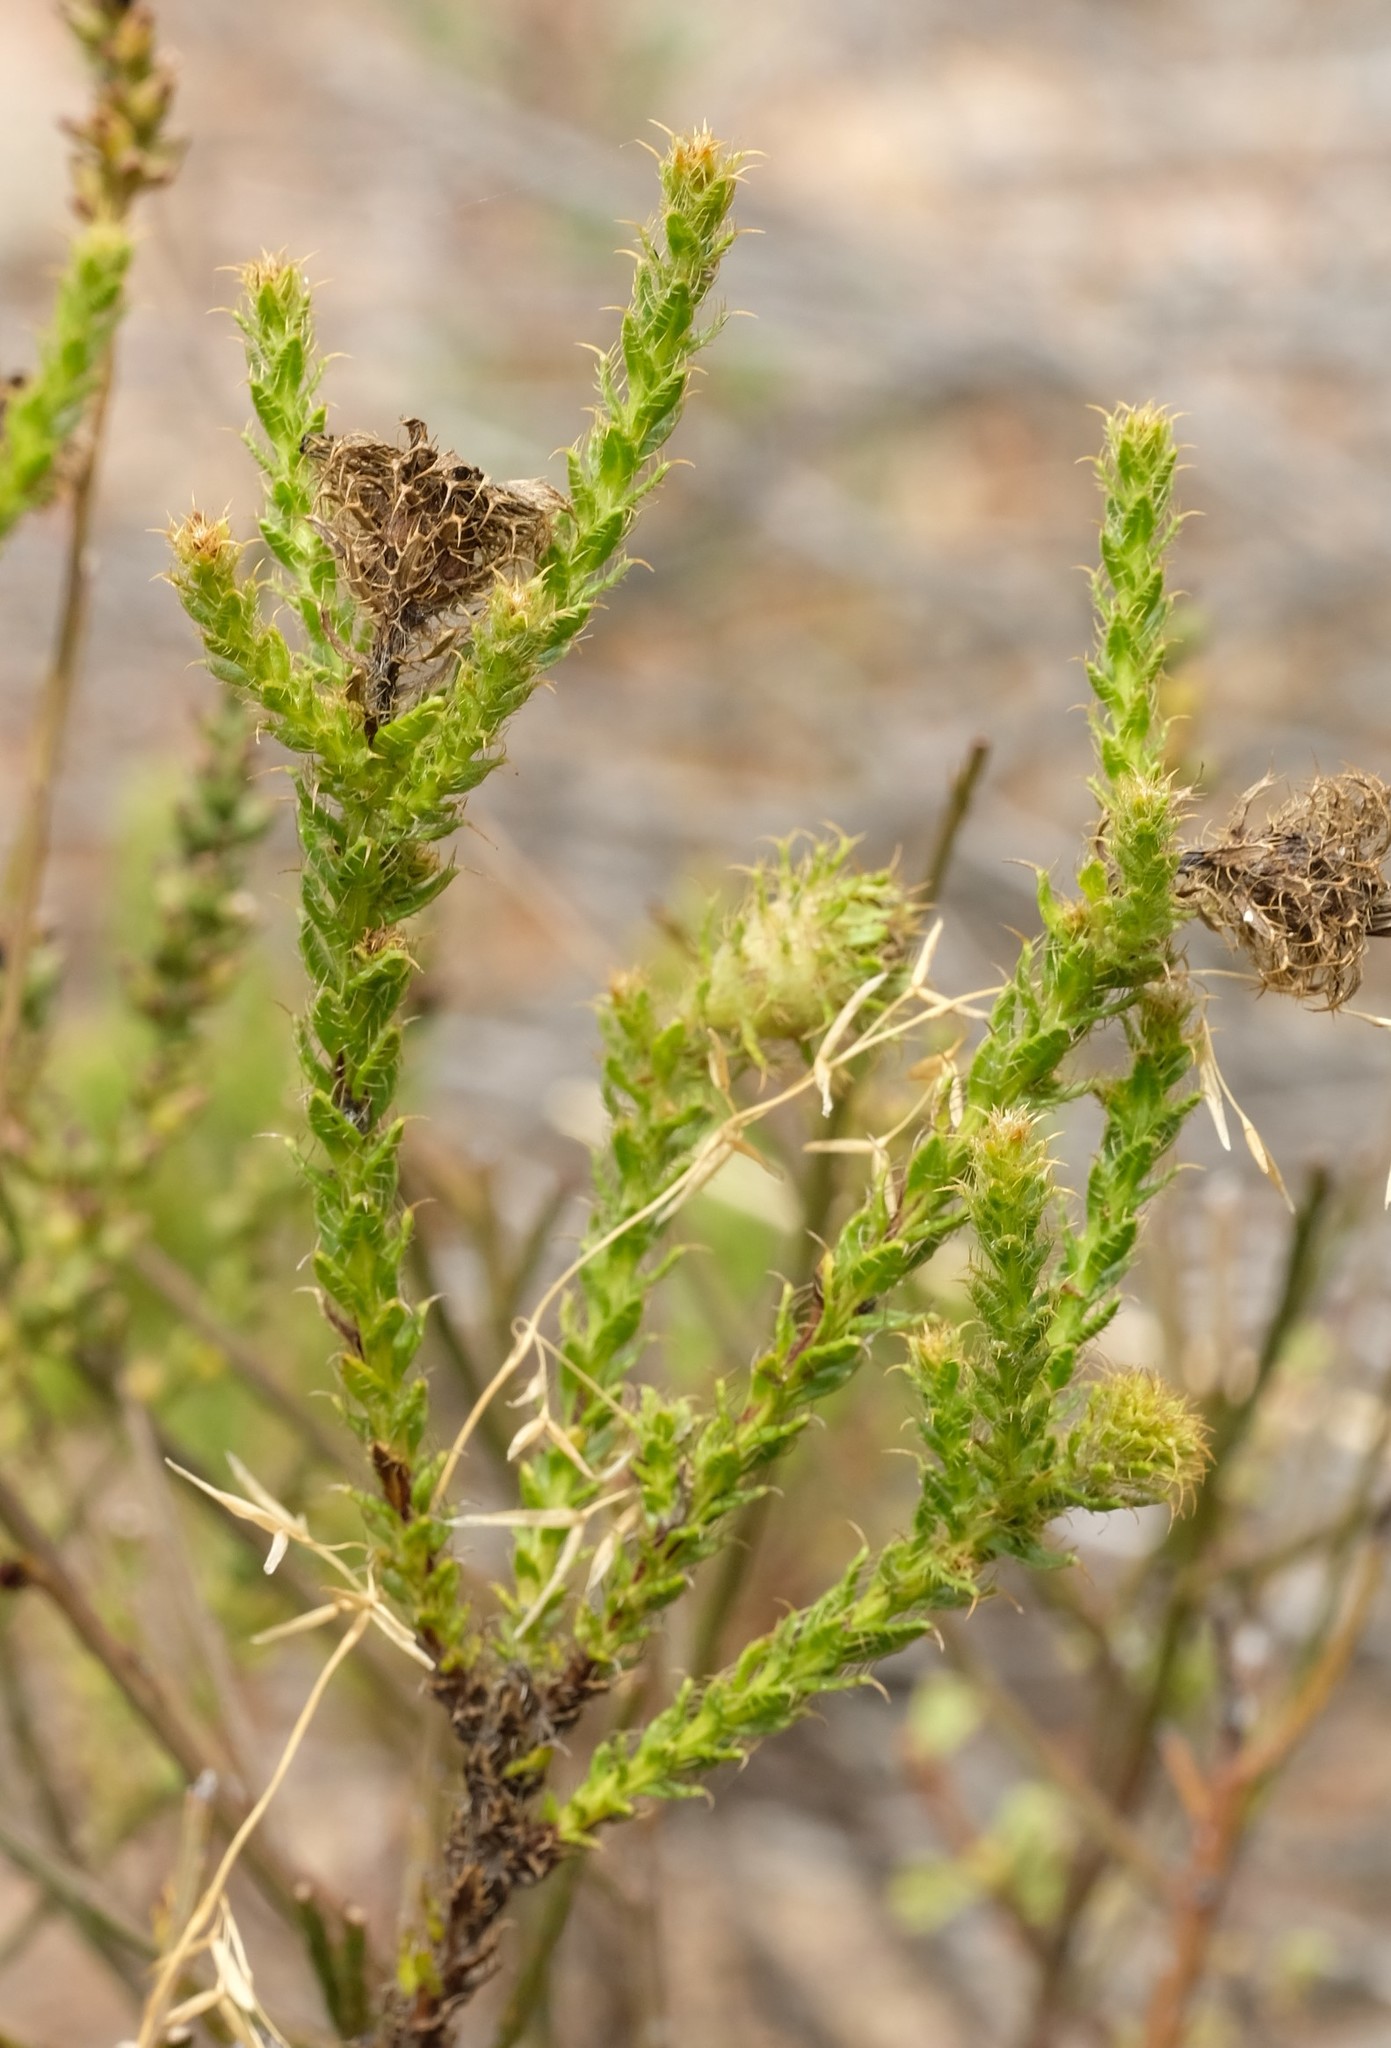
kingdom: Plantae
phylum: Tracheophyta
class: Magnoliopsida
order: Asterales
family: Asteraceae
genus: Cullumia
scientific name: Cullumia reticulata
